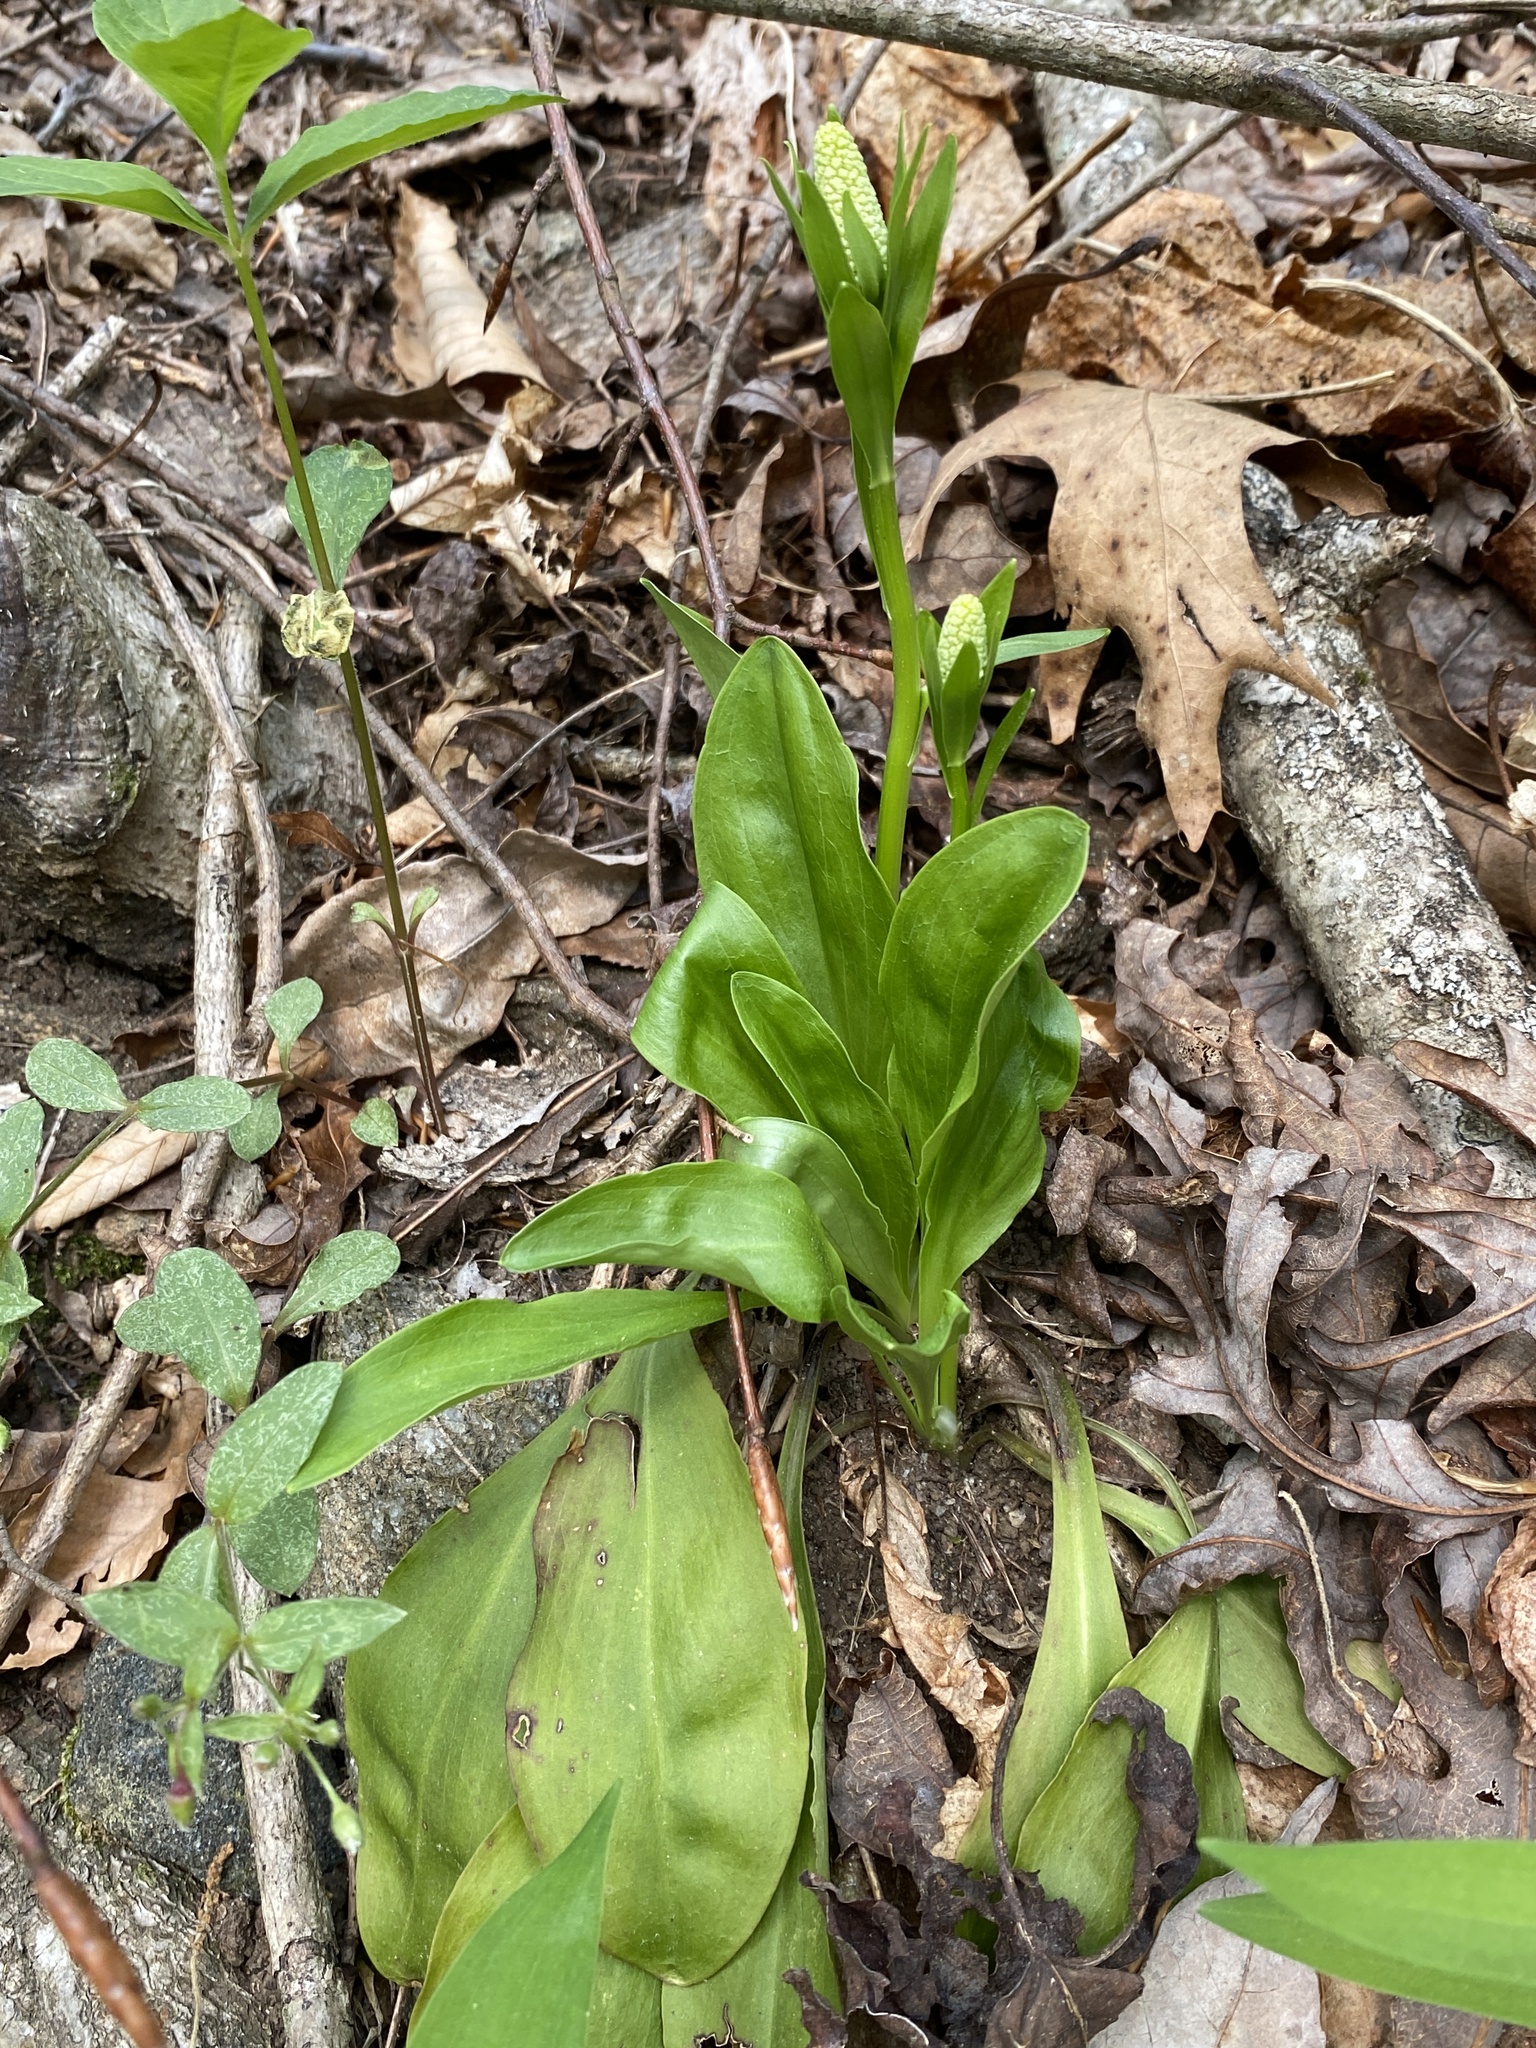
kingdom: Plantae
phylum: Tracheophyta
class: Liliopsida
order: Liliales
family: Melanthiaceae
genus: Chamaelirium
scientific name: Chamaelirium luteum
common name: Fairy-wand
